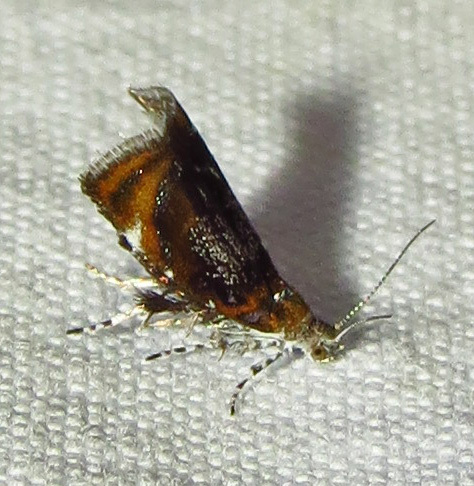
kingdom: Animalia
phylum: Arthropoda
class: Insecta
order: Lepidoptera
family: Choreutidae
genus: Prochoreutis
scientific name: Prochoreutis inflatella
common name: Skullcap skeletonizer moth
